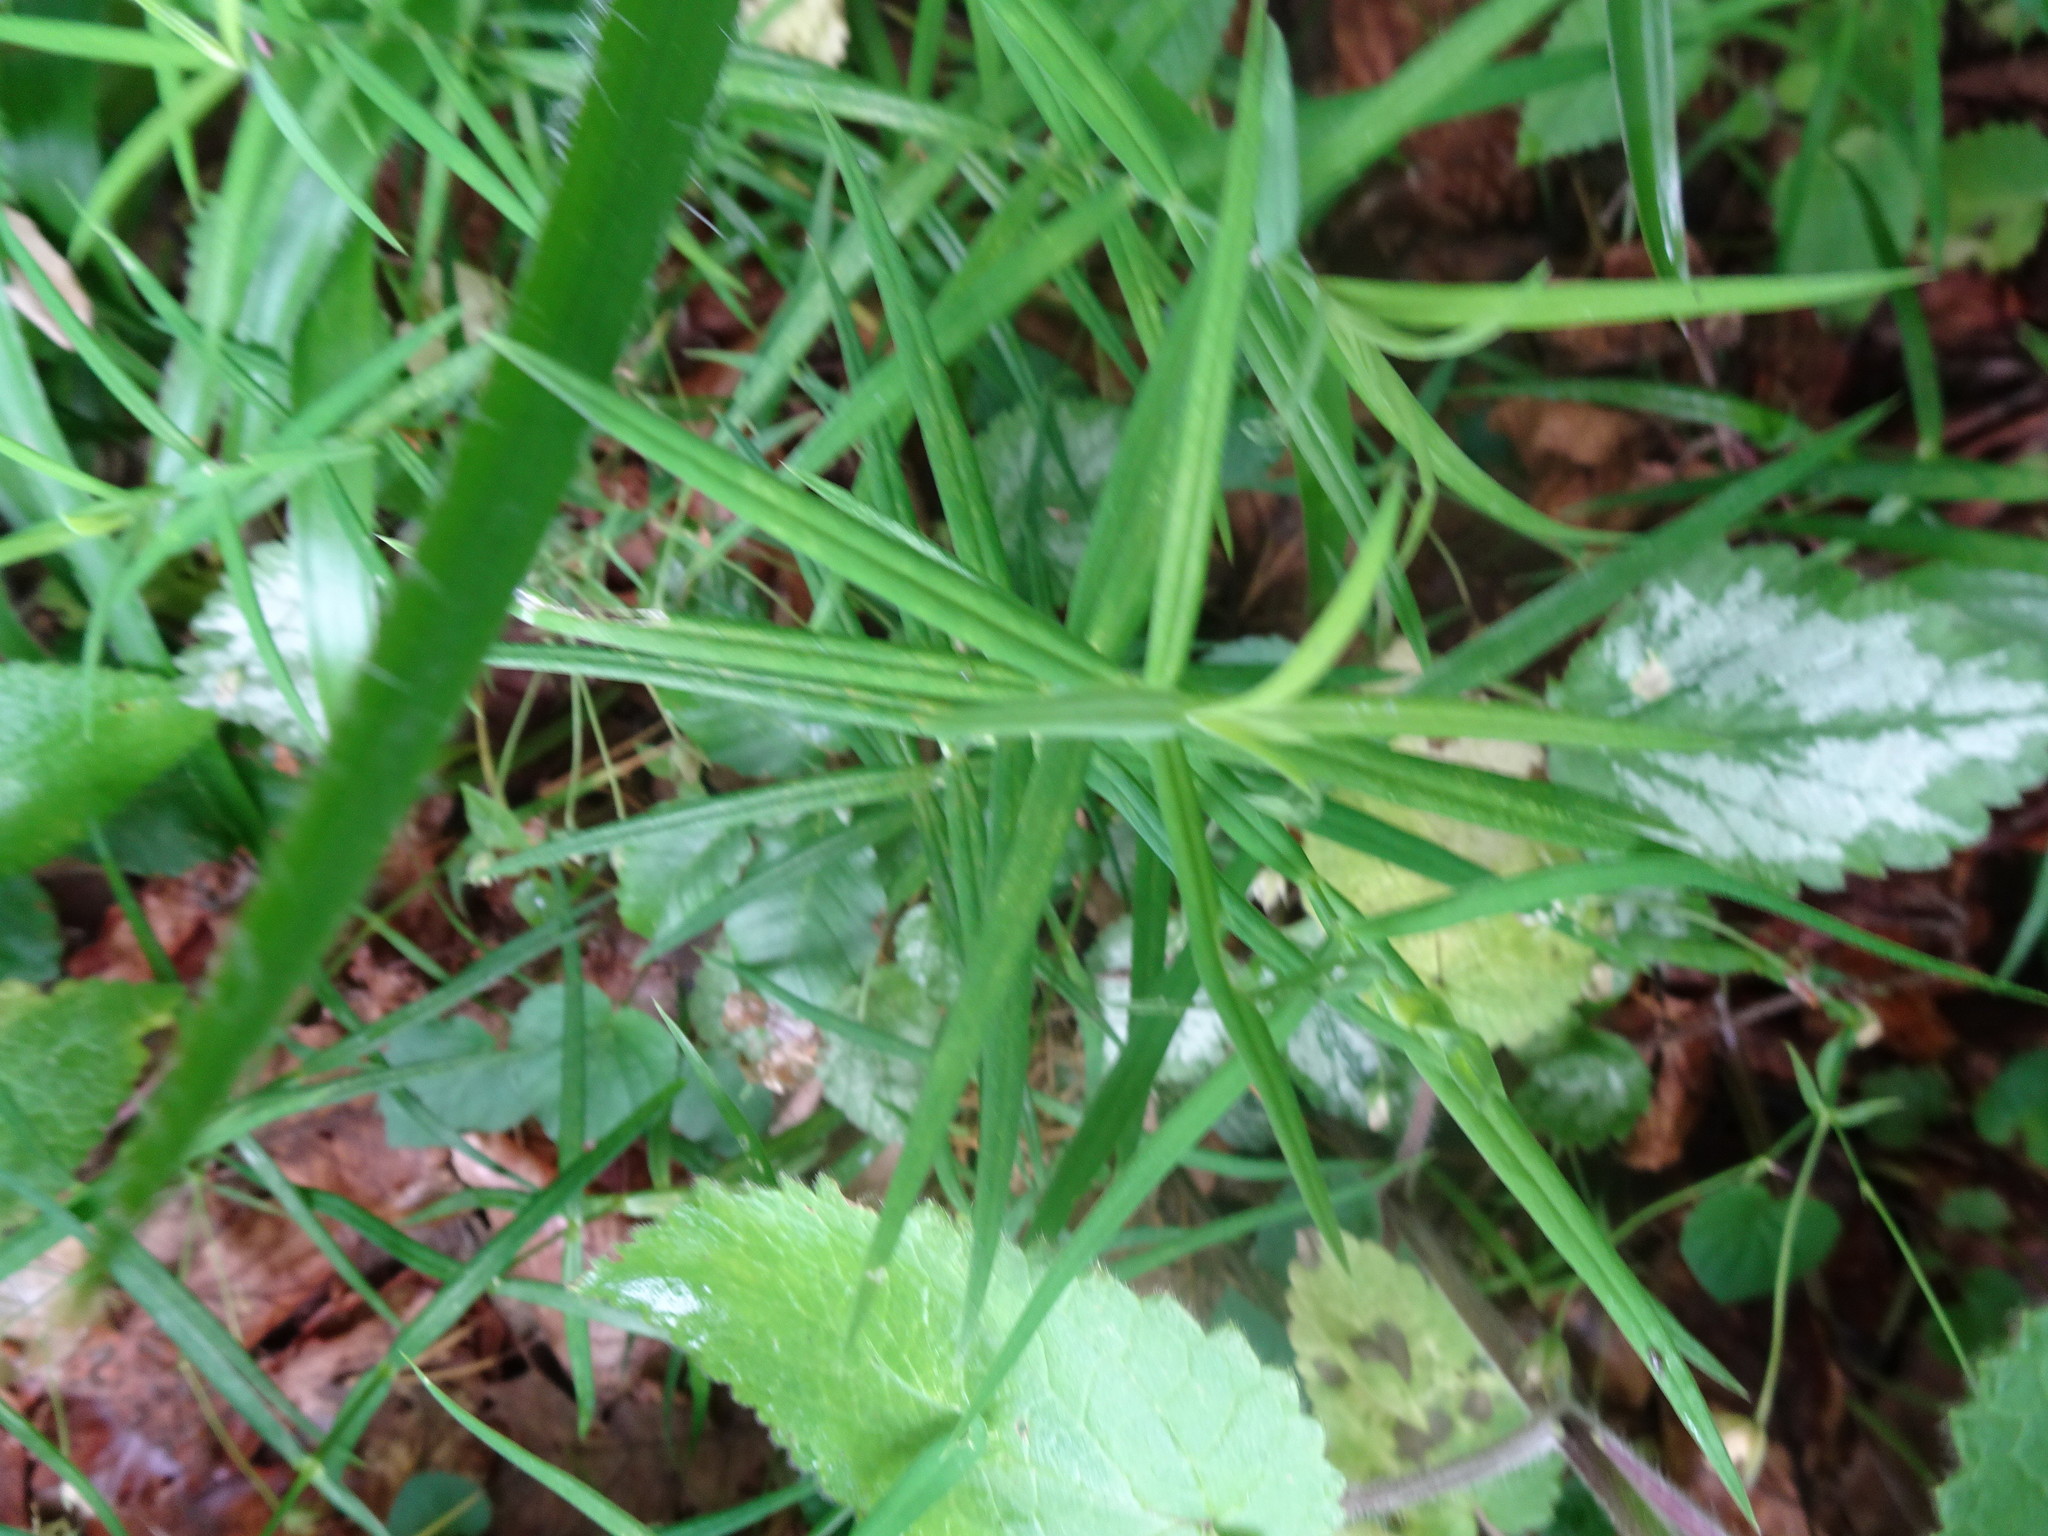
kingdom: Plantae
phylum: Tracheophyta
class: Magnoliopsida
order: Caryophyllales
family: Caryophyllaceae
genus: Rabelera
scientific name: Rabelera holostea
